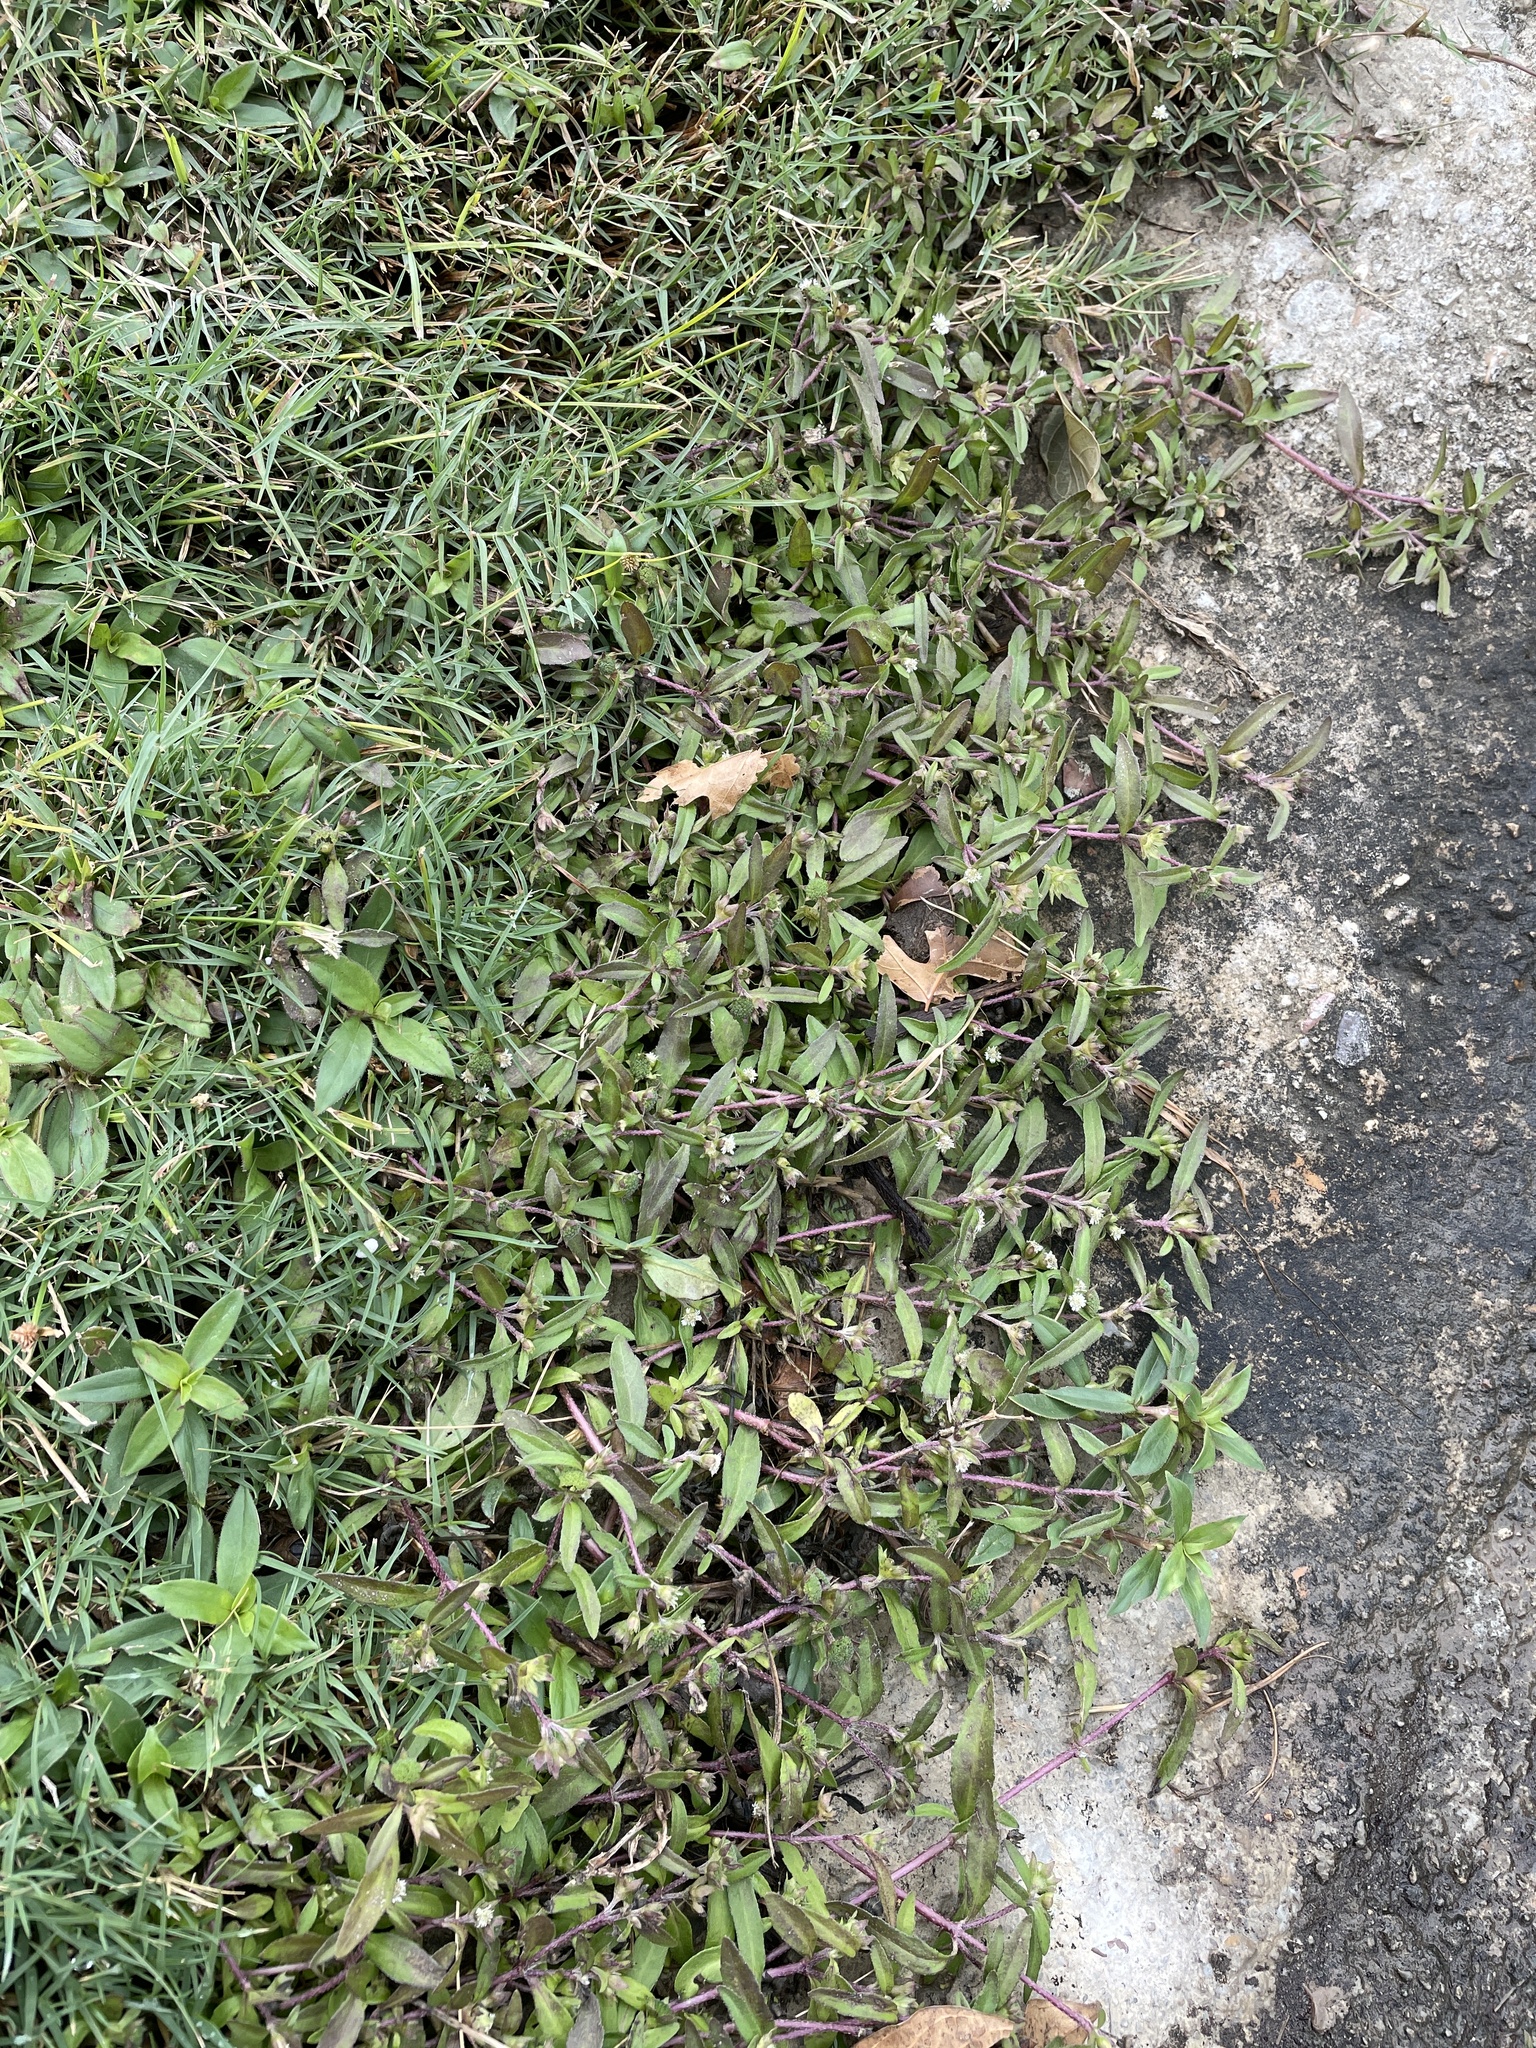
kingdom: Plantae
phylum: Tracheophyta
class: Magnoliopsida
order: Asterales
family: Asteraceae
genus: Eclipta
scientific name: Eclipta prostrata
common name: False daisy
